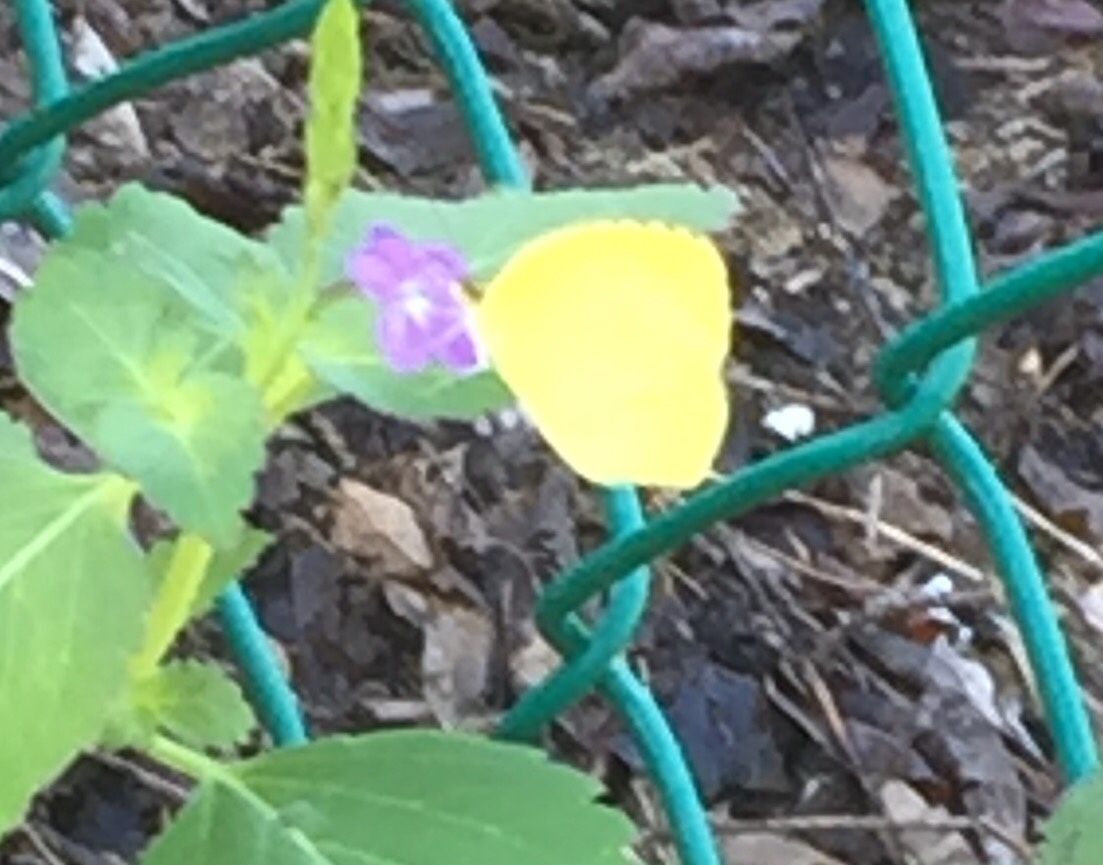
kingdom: Animalia
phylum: Arthropoda
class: Insecta
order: Lepidoptera
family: Pieridae
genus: Eurema
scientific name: Eurema
